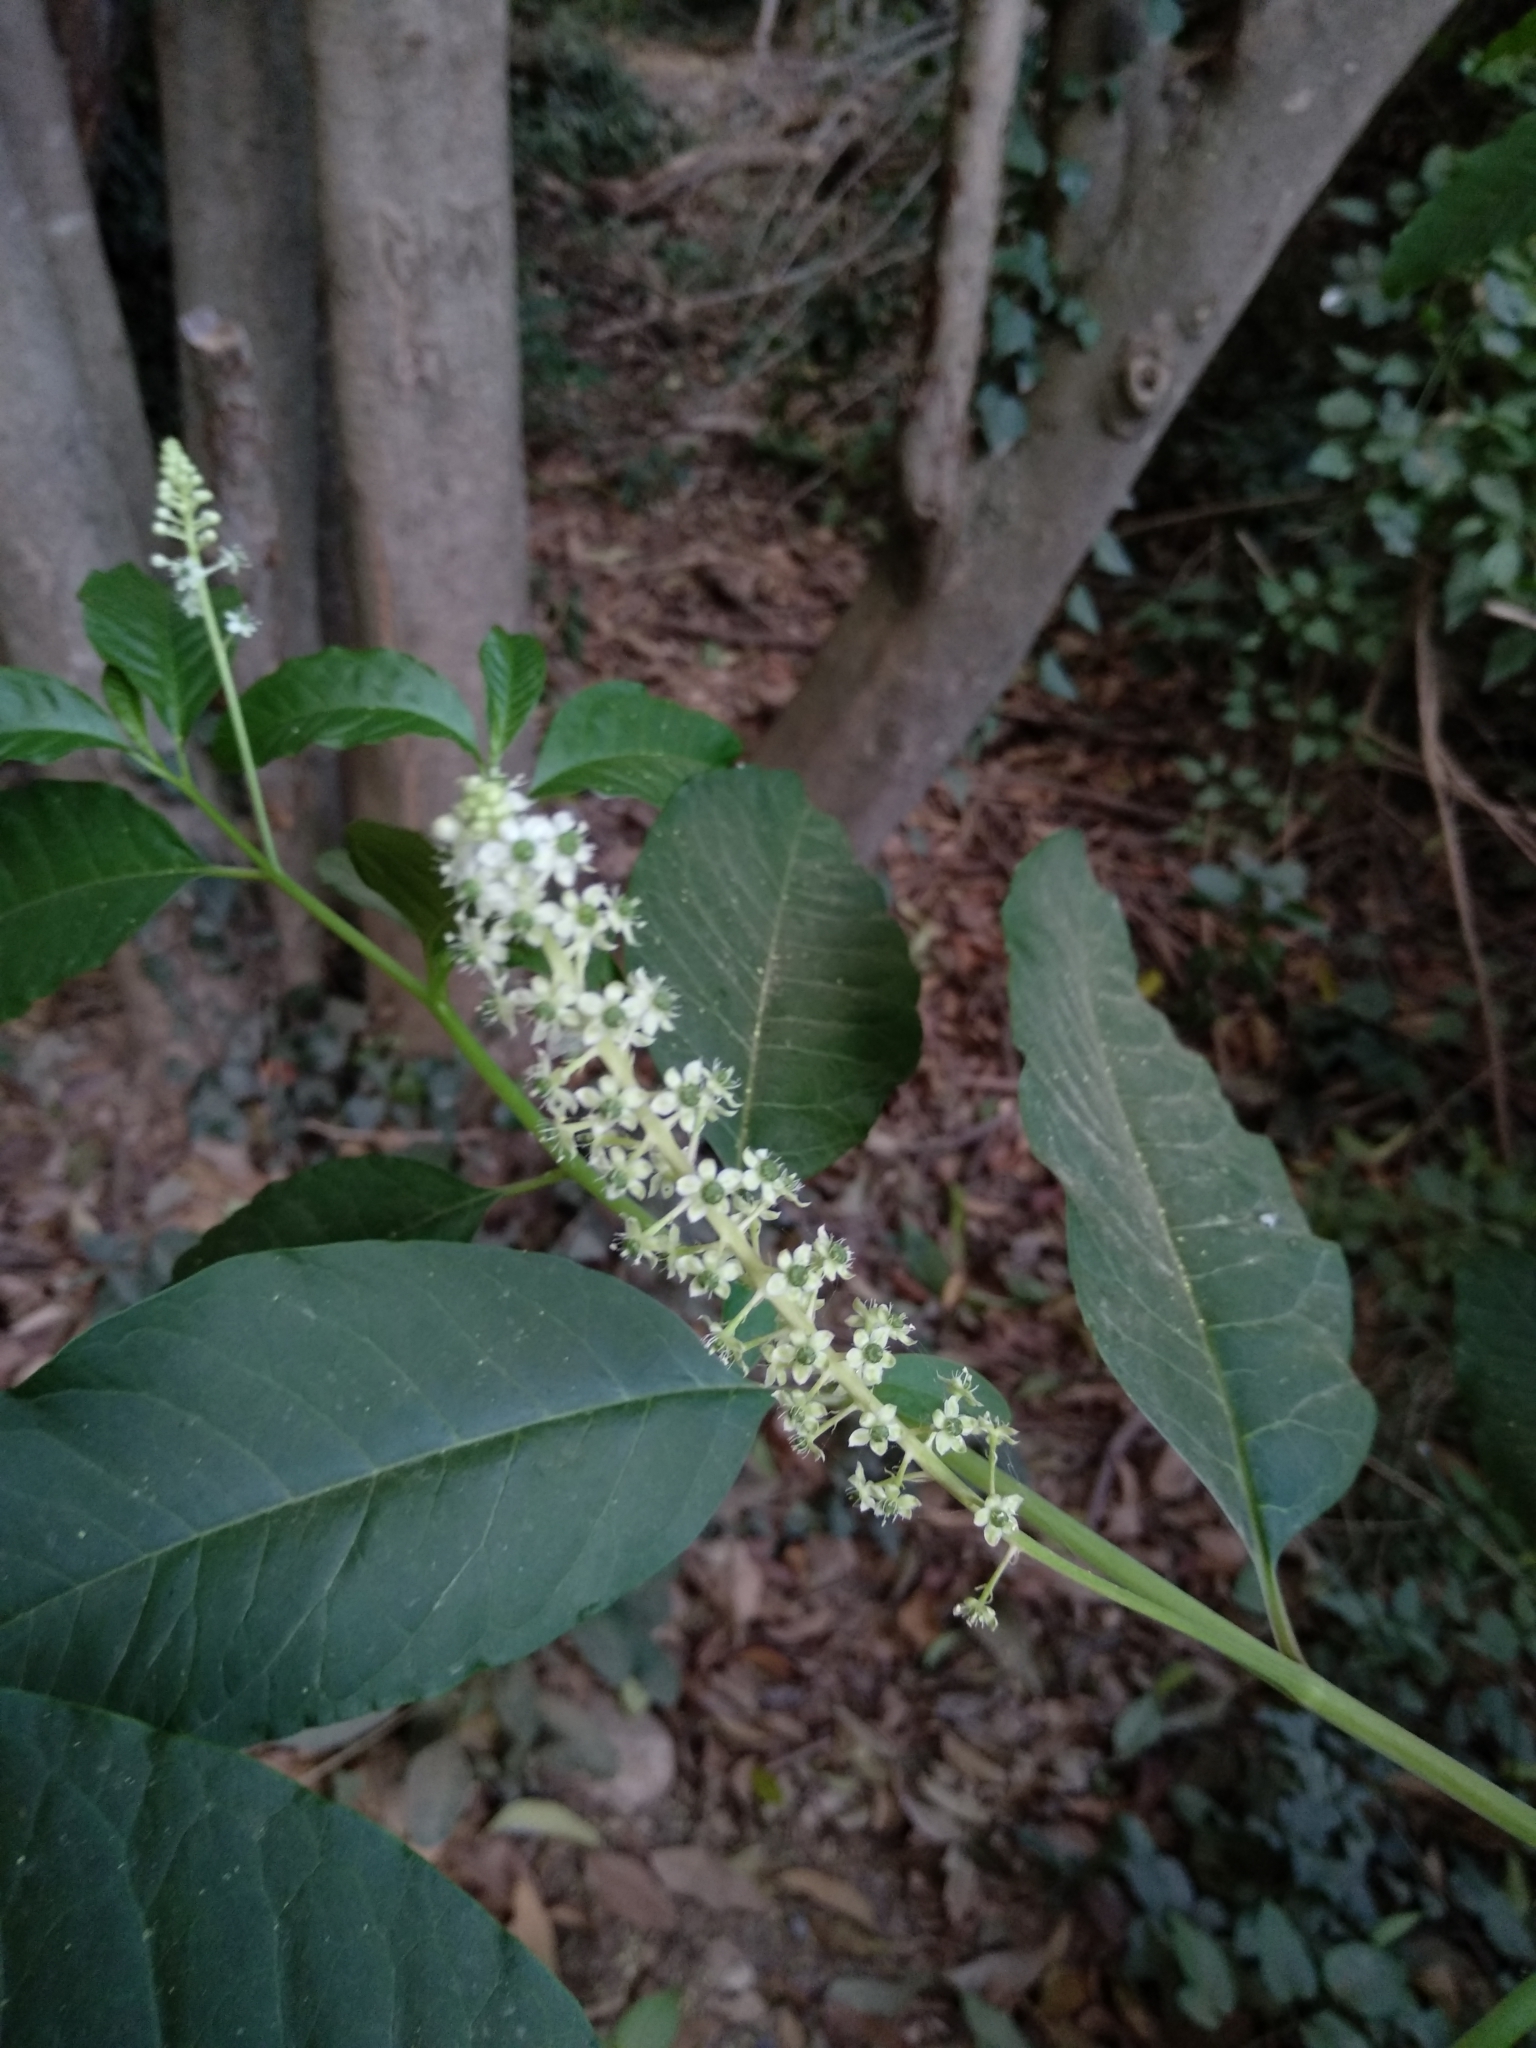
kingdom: Plantae
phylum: Tracheophyta
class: Magnoliopsida
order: Caryophyllales
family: Phytolaccaceae
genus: Phytolacca
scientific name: Phytolacca americana
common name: American pokeweed
